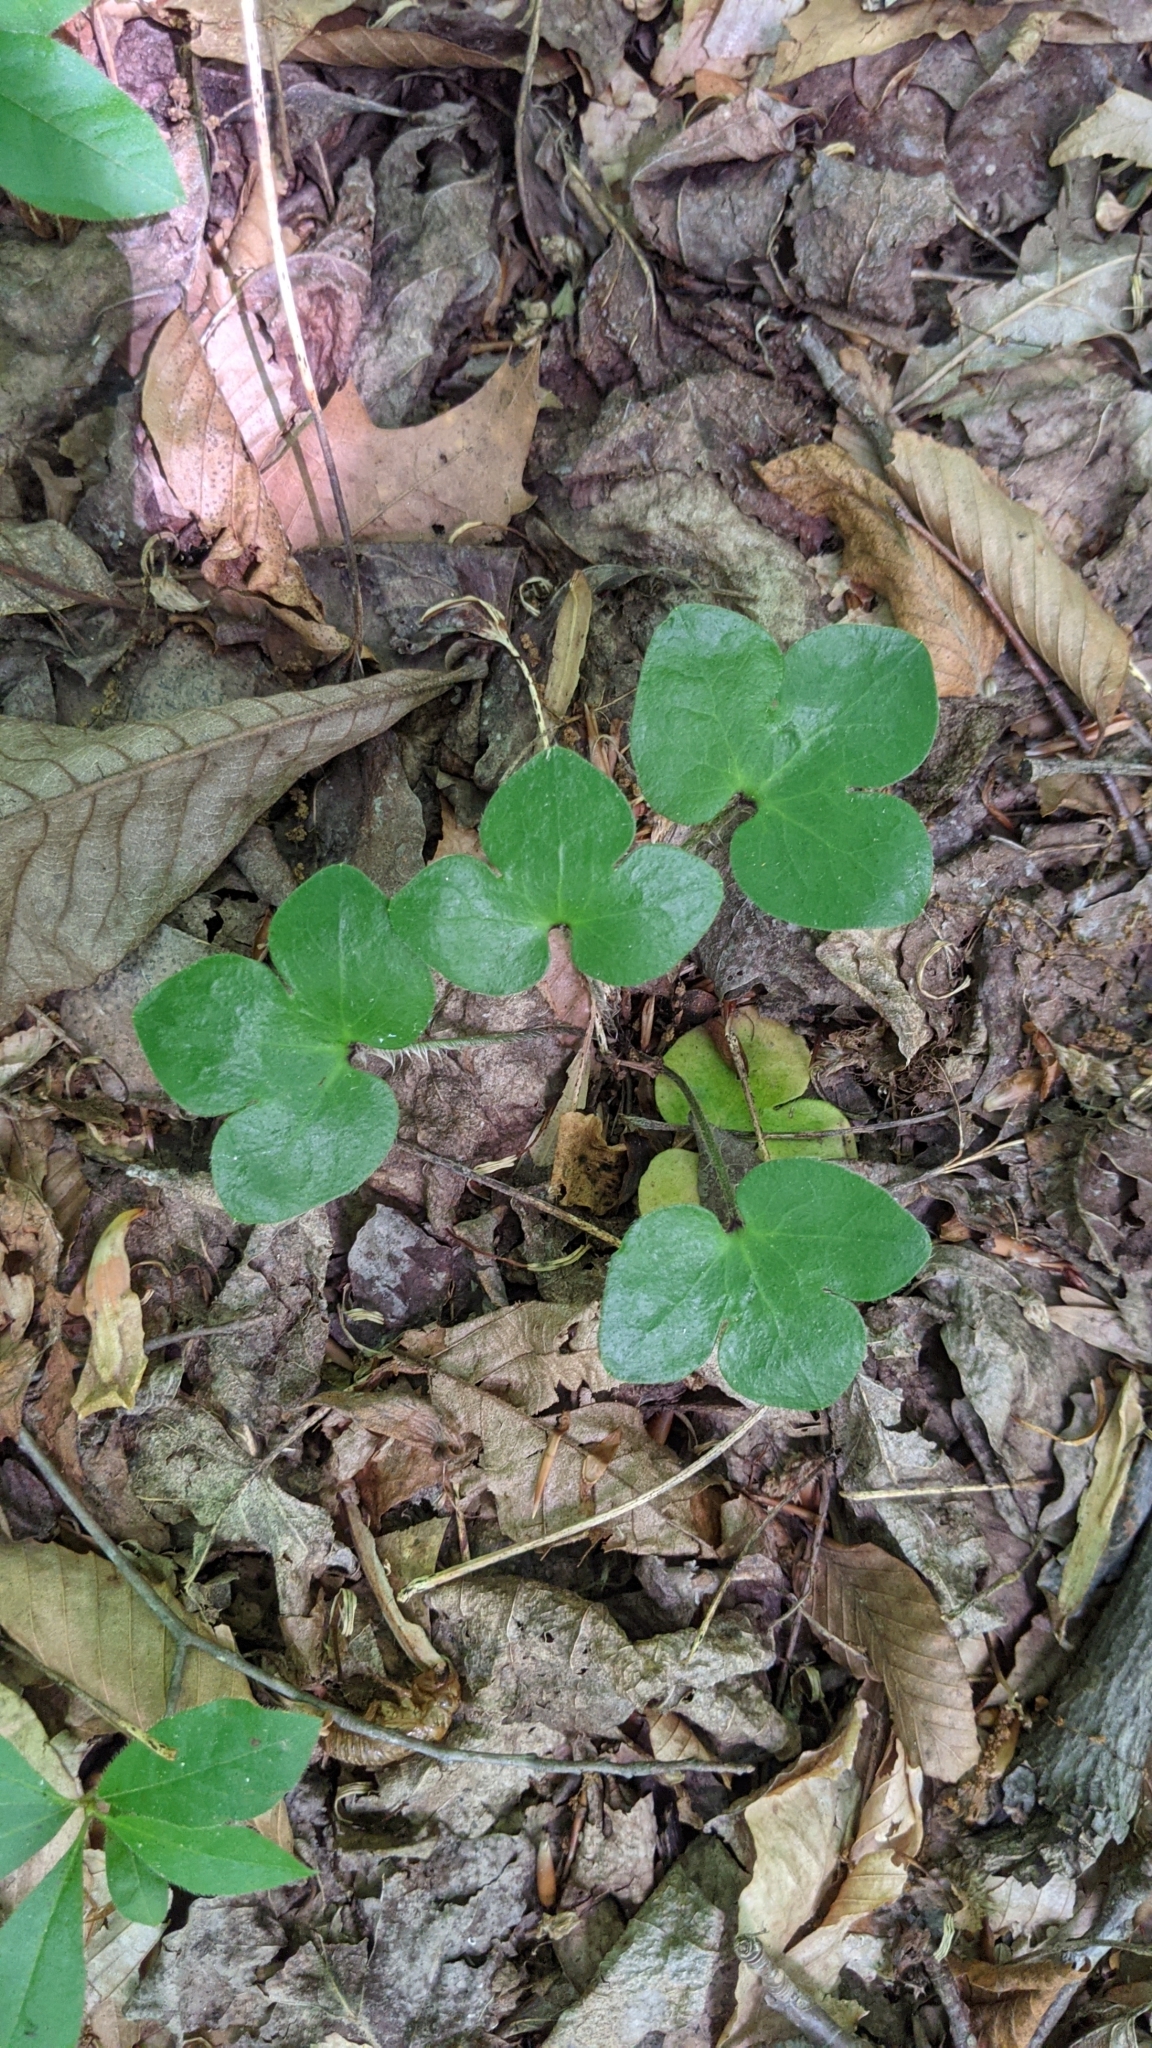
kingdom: Plantae
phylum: Tracheophyta
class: Magnoliopsida
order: Ranunculales
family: Ranunculaceae
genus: Hepatica
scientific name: Hepatica americana
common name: American hepatica
